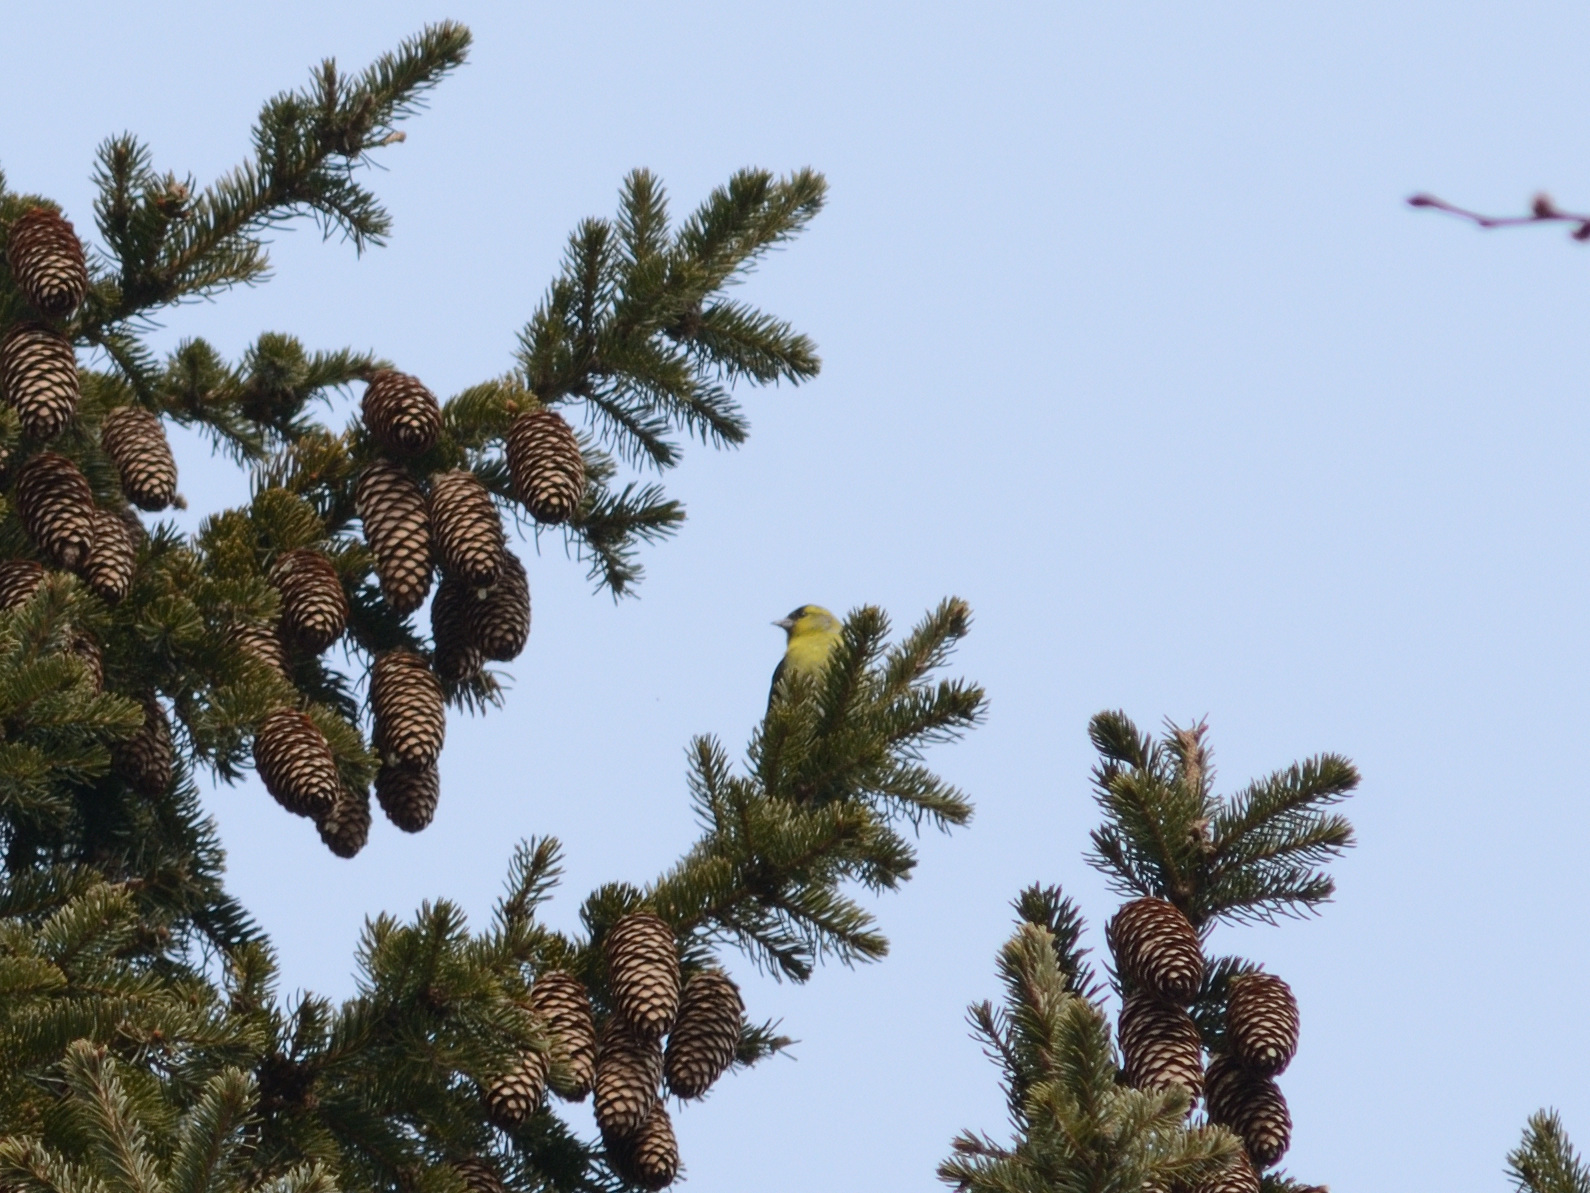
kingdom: Animalia
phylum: Chordata
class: Aves
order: Passeriformes
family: Fringillidae
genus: Spinus
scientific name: Spinus spinus
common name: Eurasian siskin
